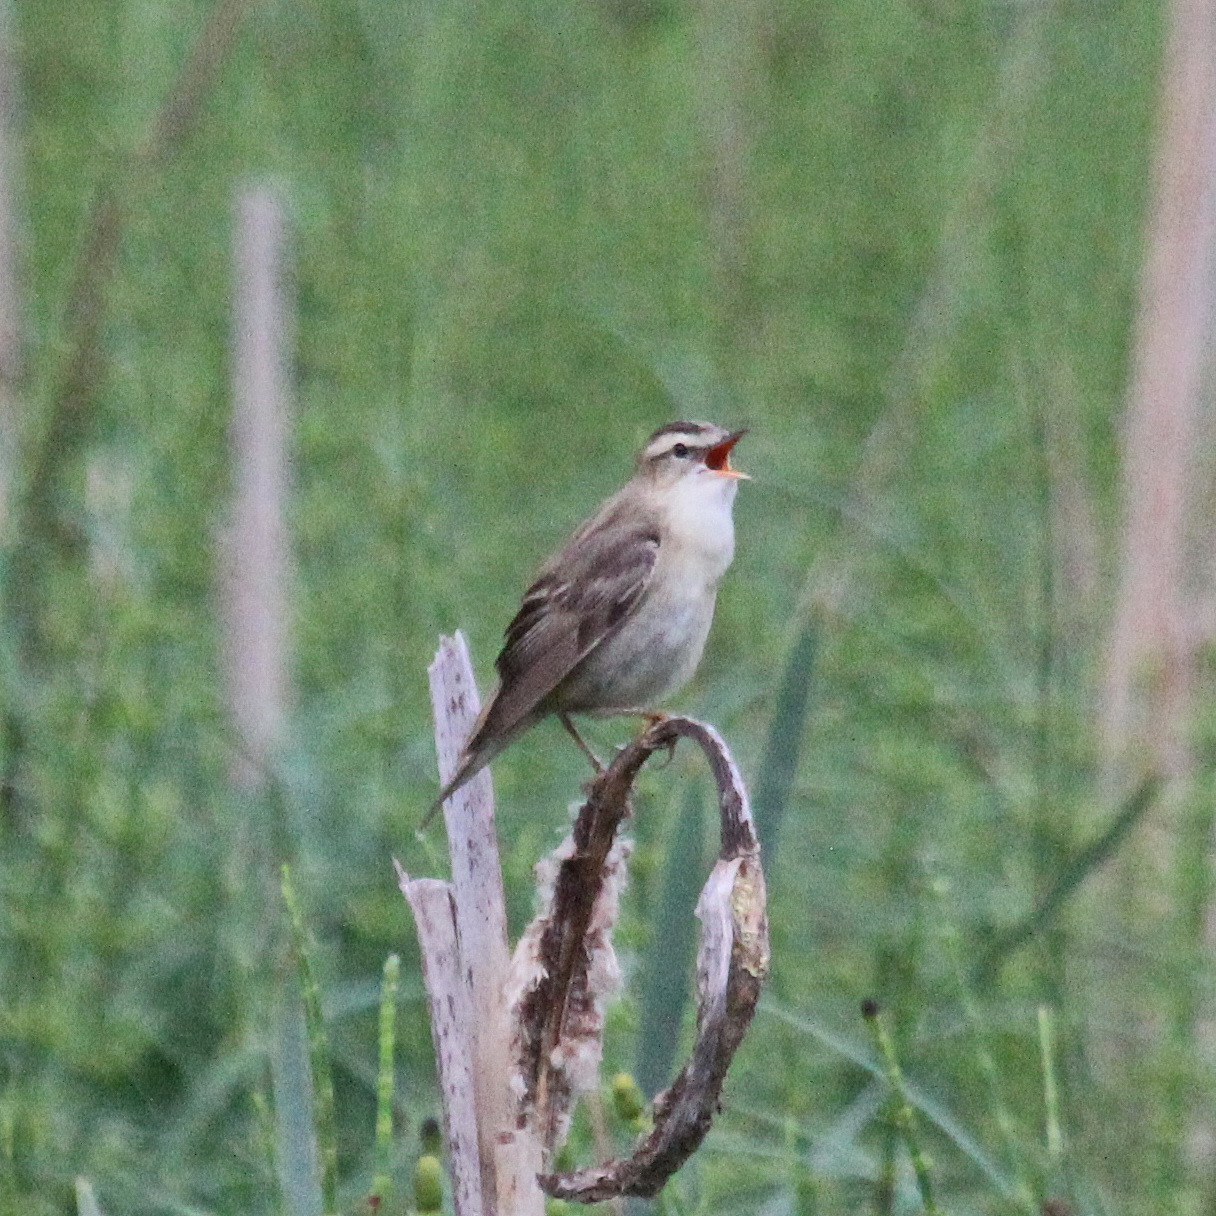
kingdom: Animalia
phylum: Chordata
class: Aves
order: Passeriformes
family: Acrocephalidae
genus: Acrocephalus
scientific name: Acrocephalus schoenobaenus
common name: Sedge warbler
